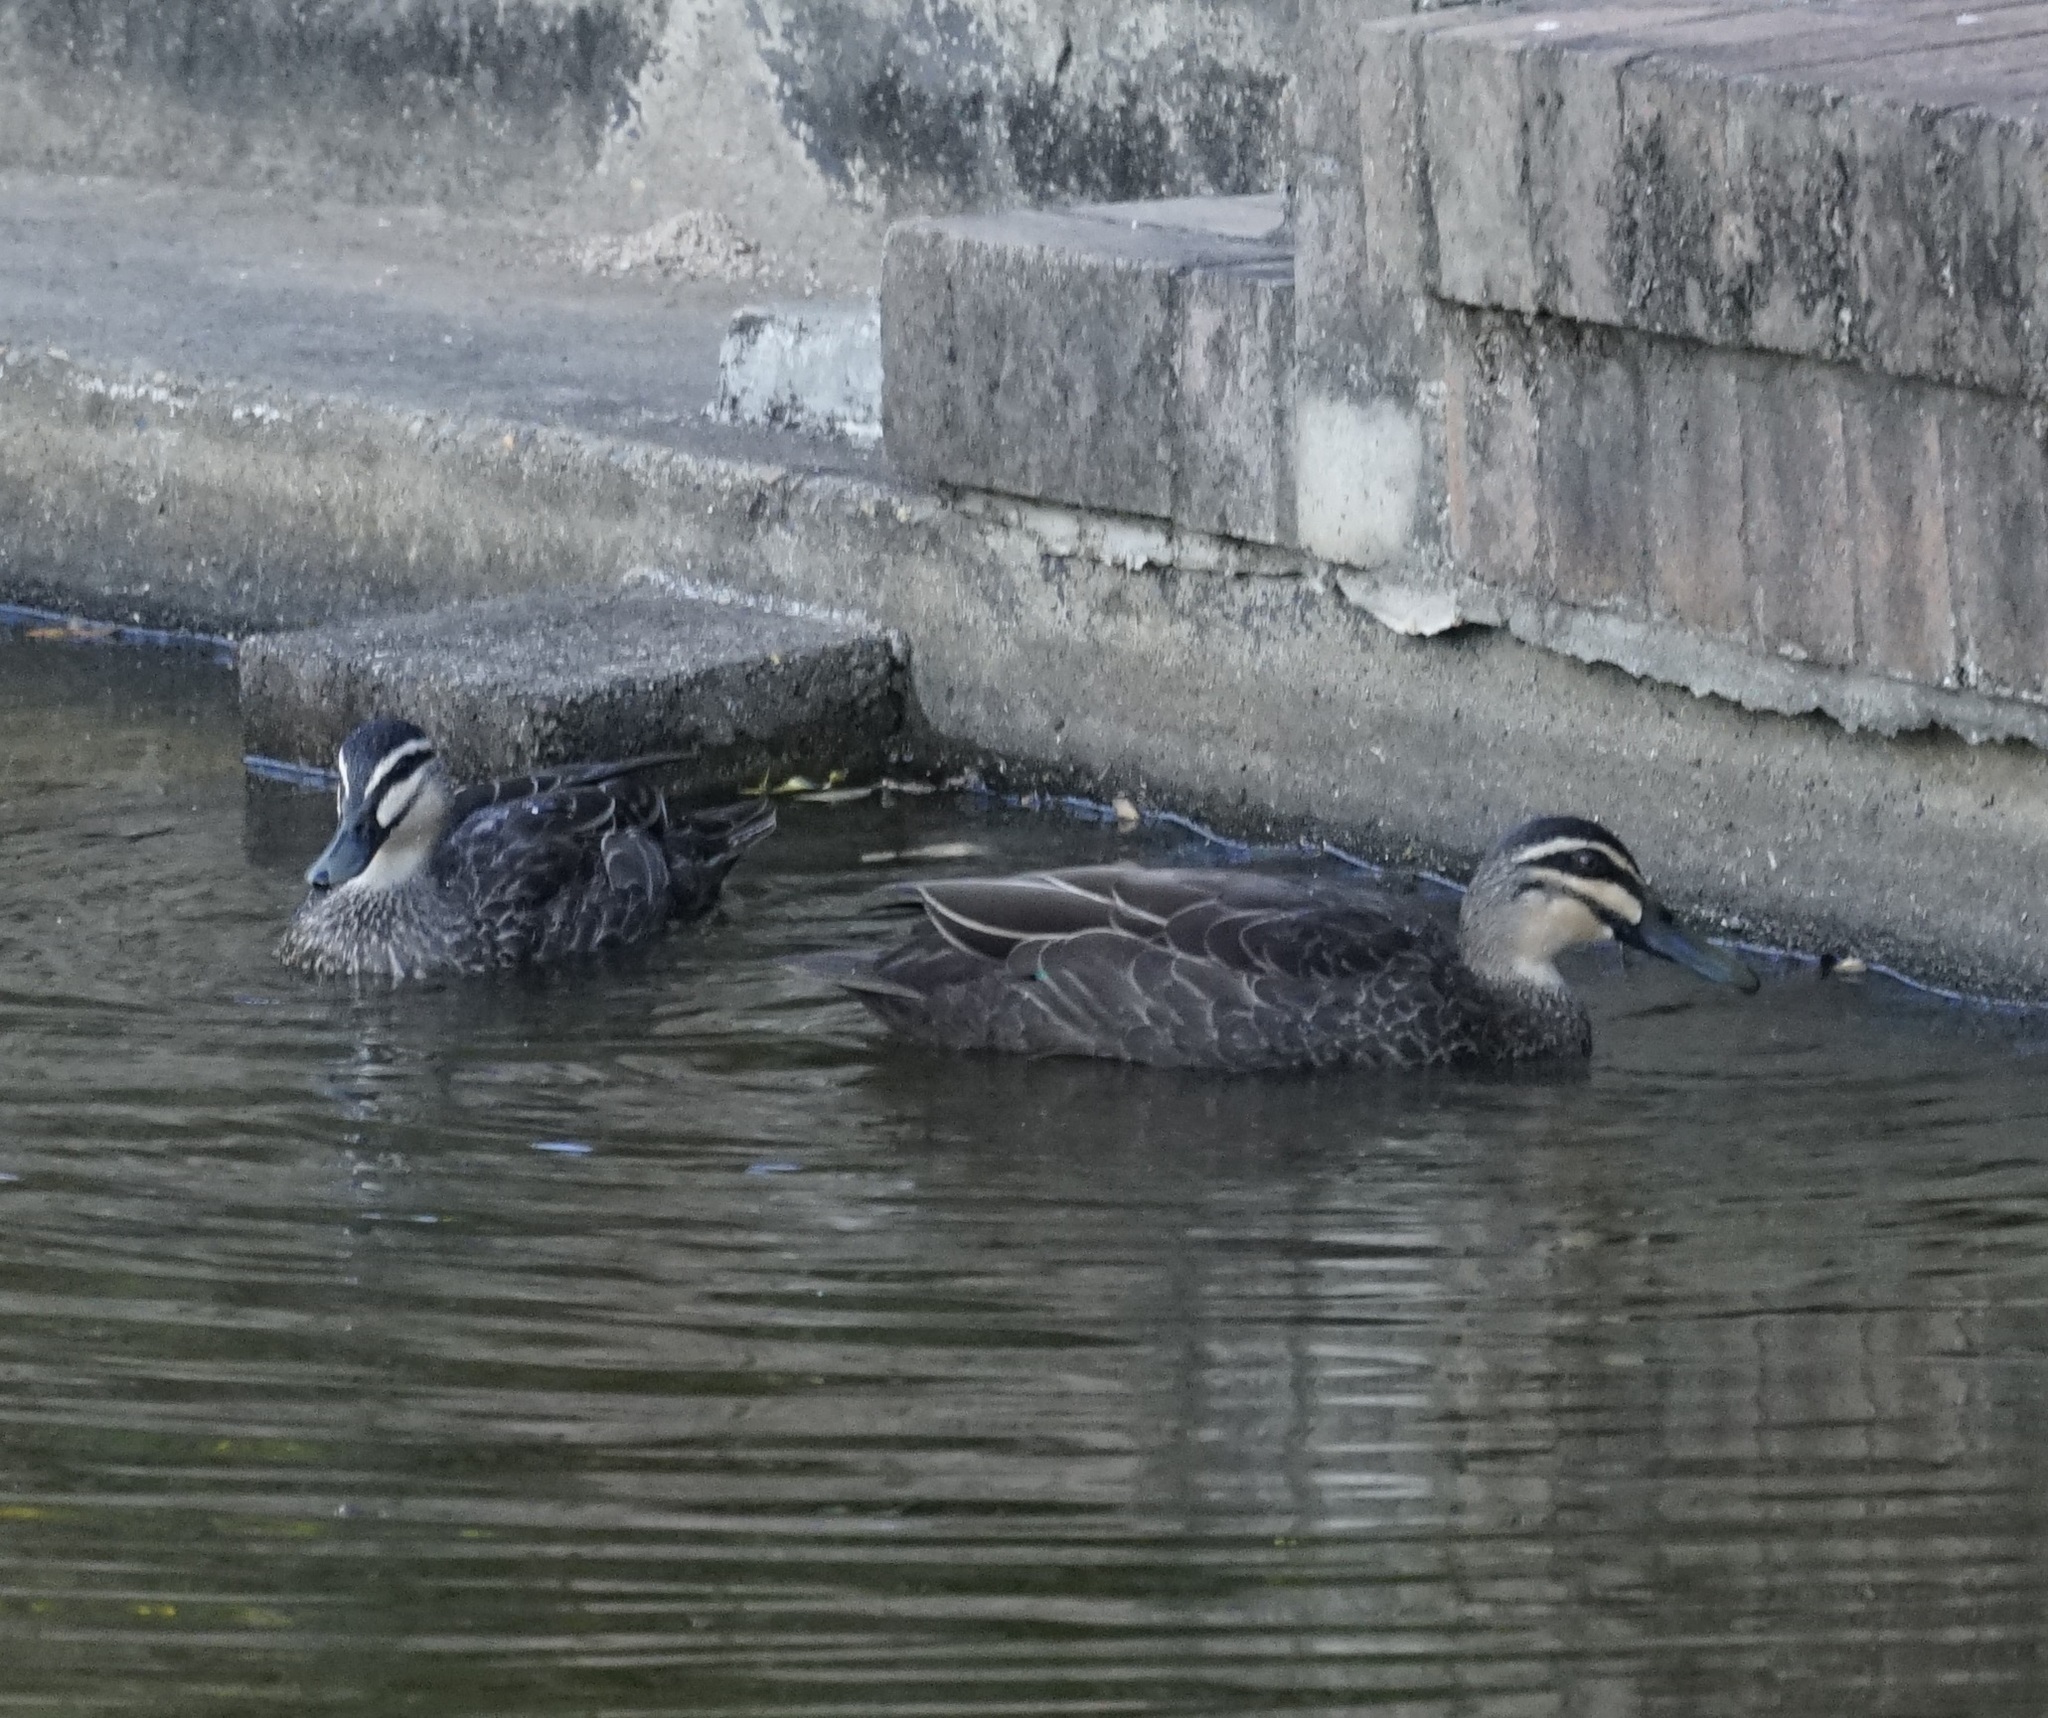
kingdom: Animalia
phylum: Chordata
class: Aves
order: Anseriformes
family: Anatidae
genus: Anas
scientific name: Anas superciliosa
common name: Pacific black duck
